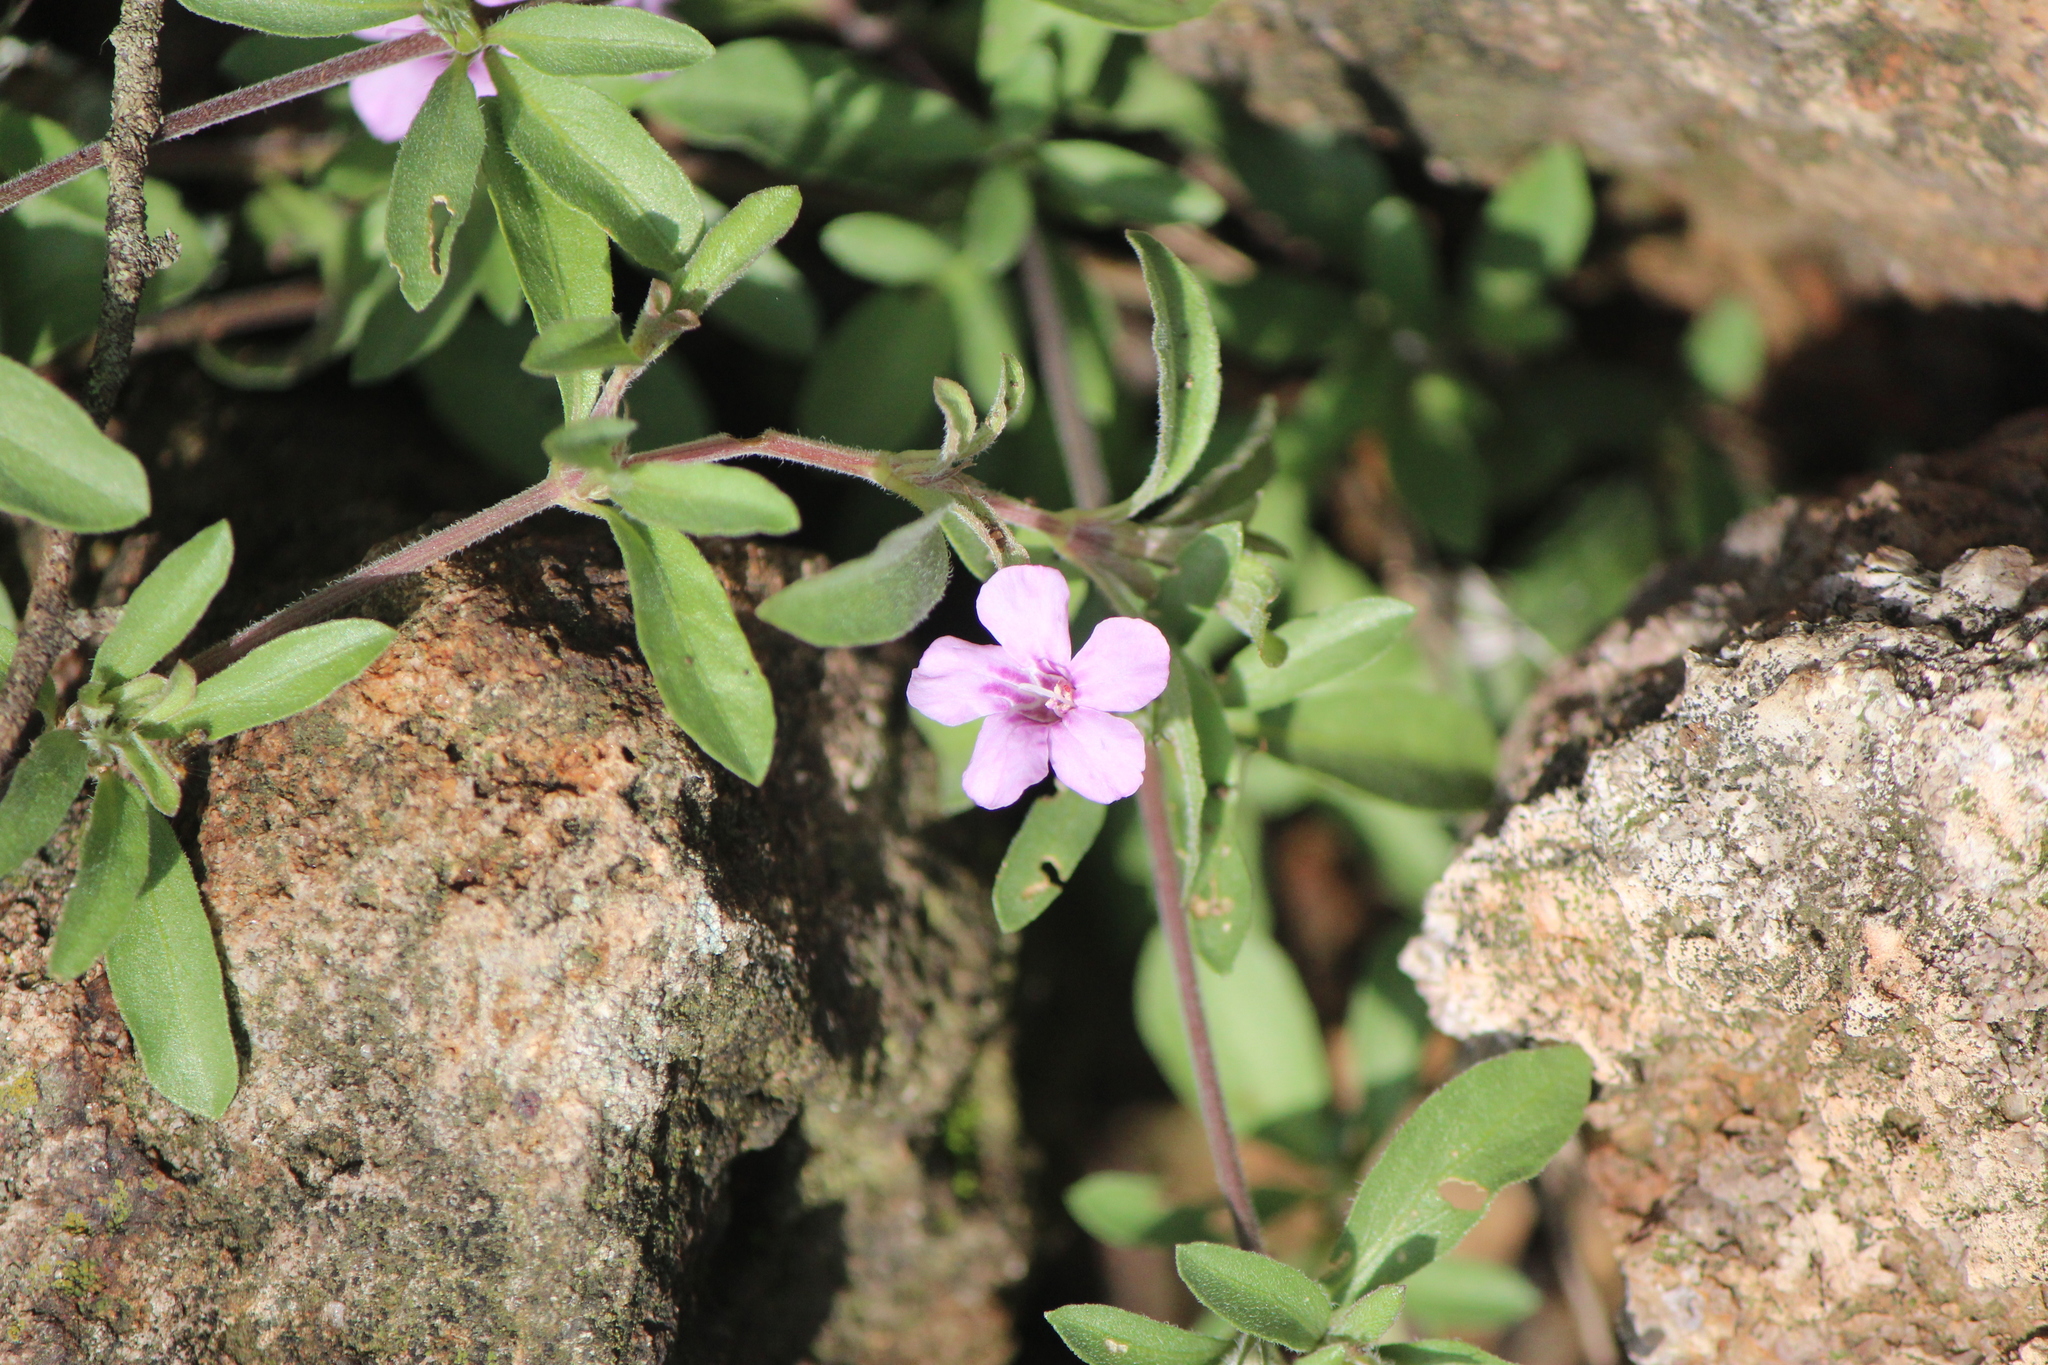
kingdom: Plantae
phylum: Tracheophyta
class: Magnoliopsida
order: Lamiales
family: Acanthaceae
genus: Dyschoriste
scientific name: Dyschoriste linearis
